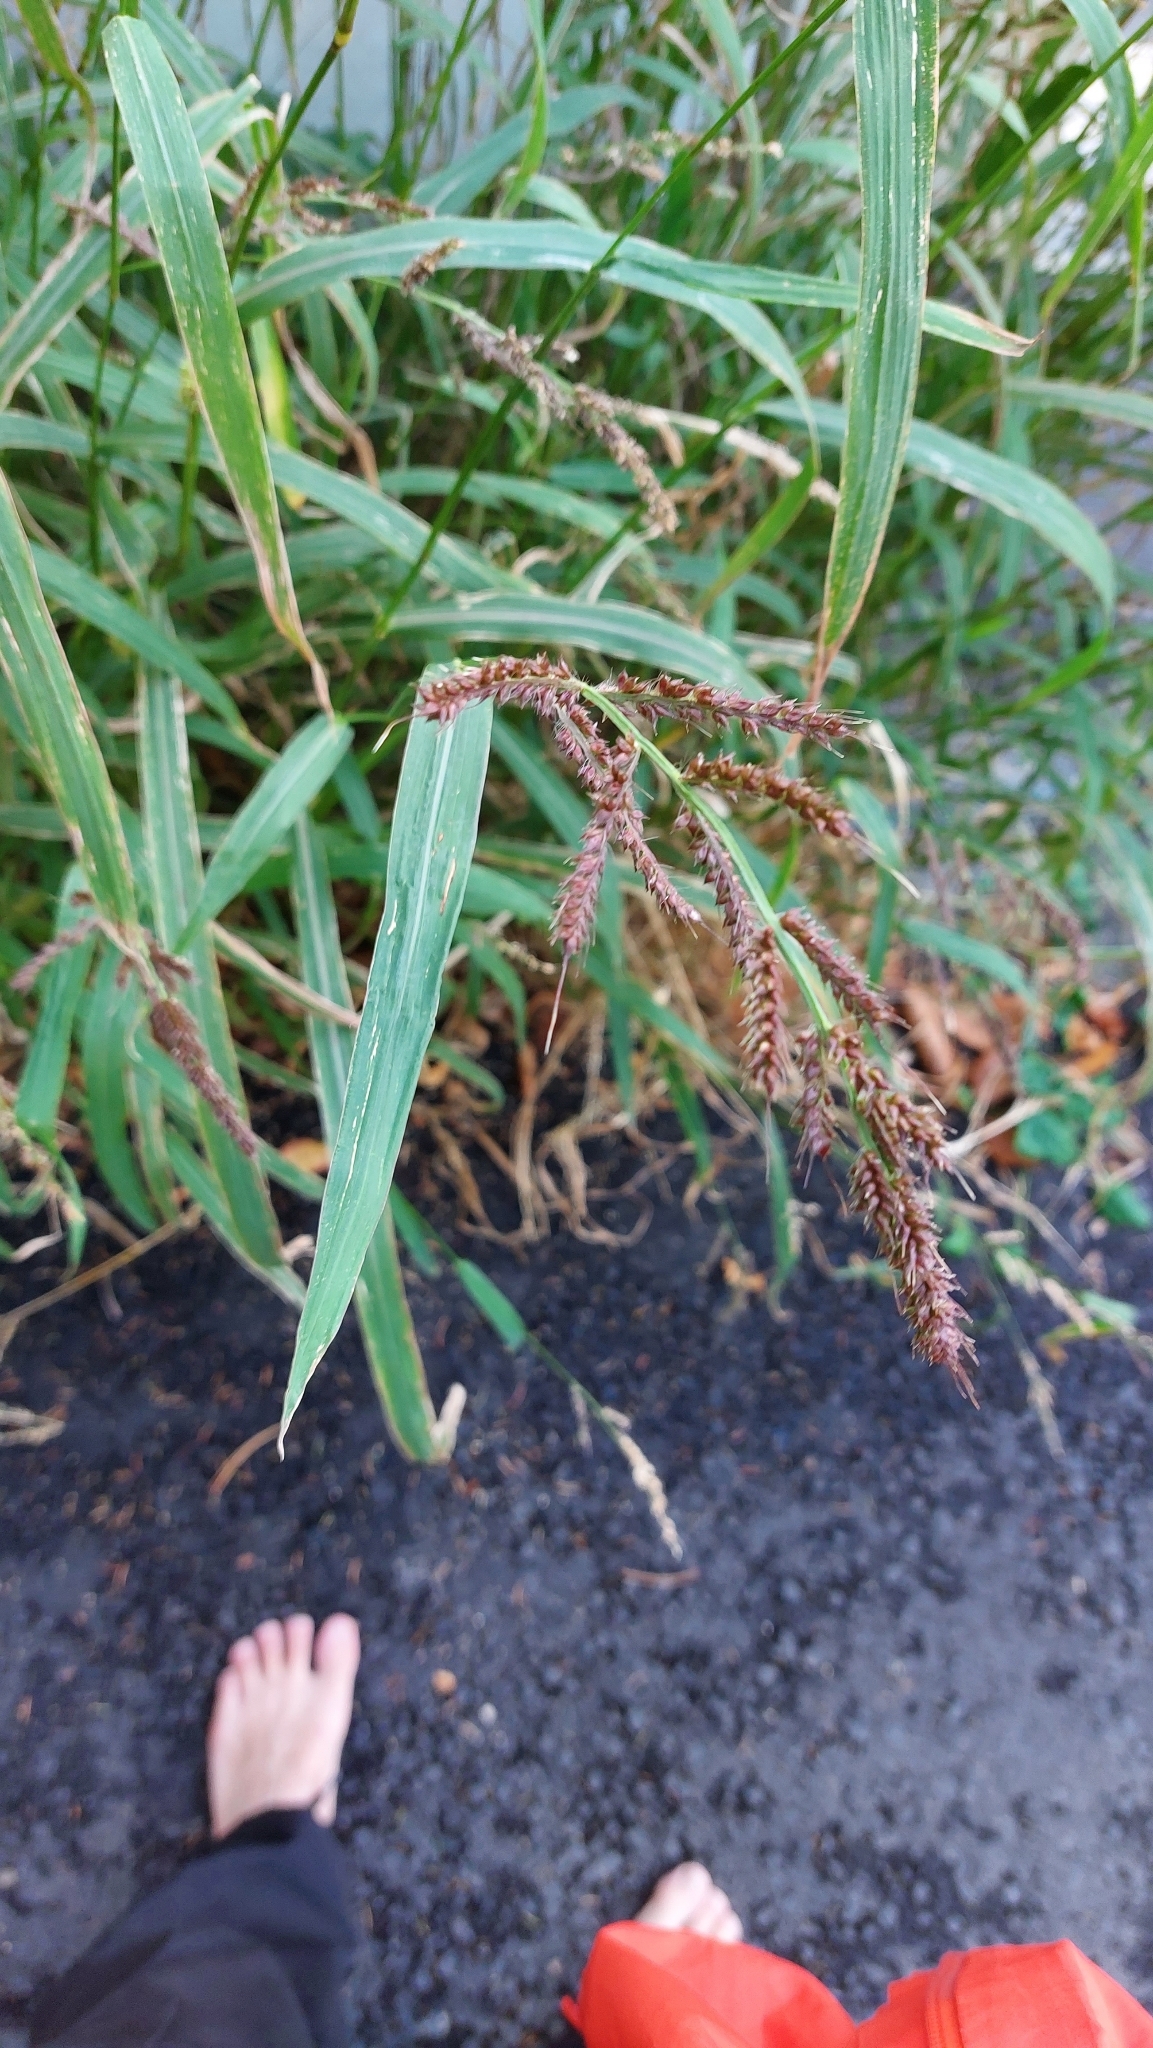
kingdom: Plantae
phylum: Tracheophyta
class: Liliopsida
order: Poales
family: Poaceae
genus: Echinochloa
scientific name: Echinochloa crus-galli
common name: Cockspur
